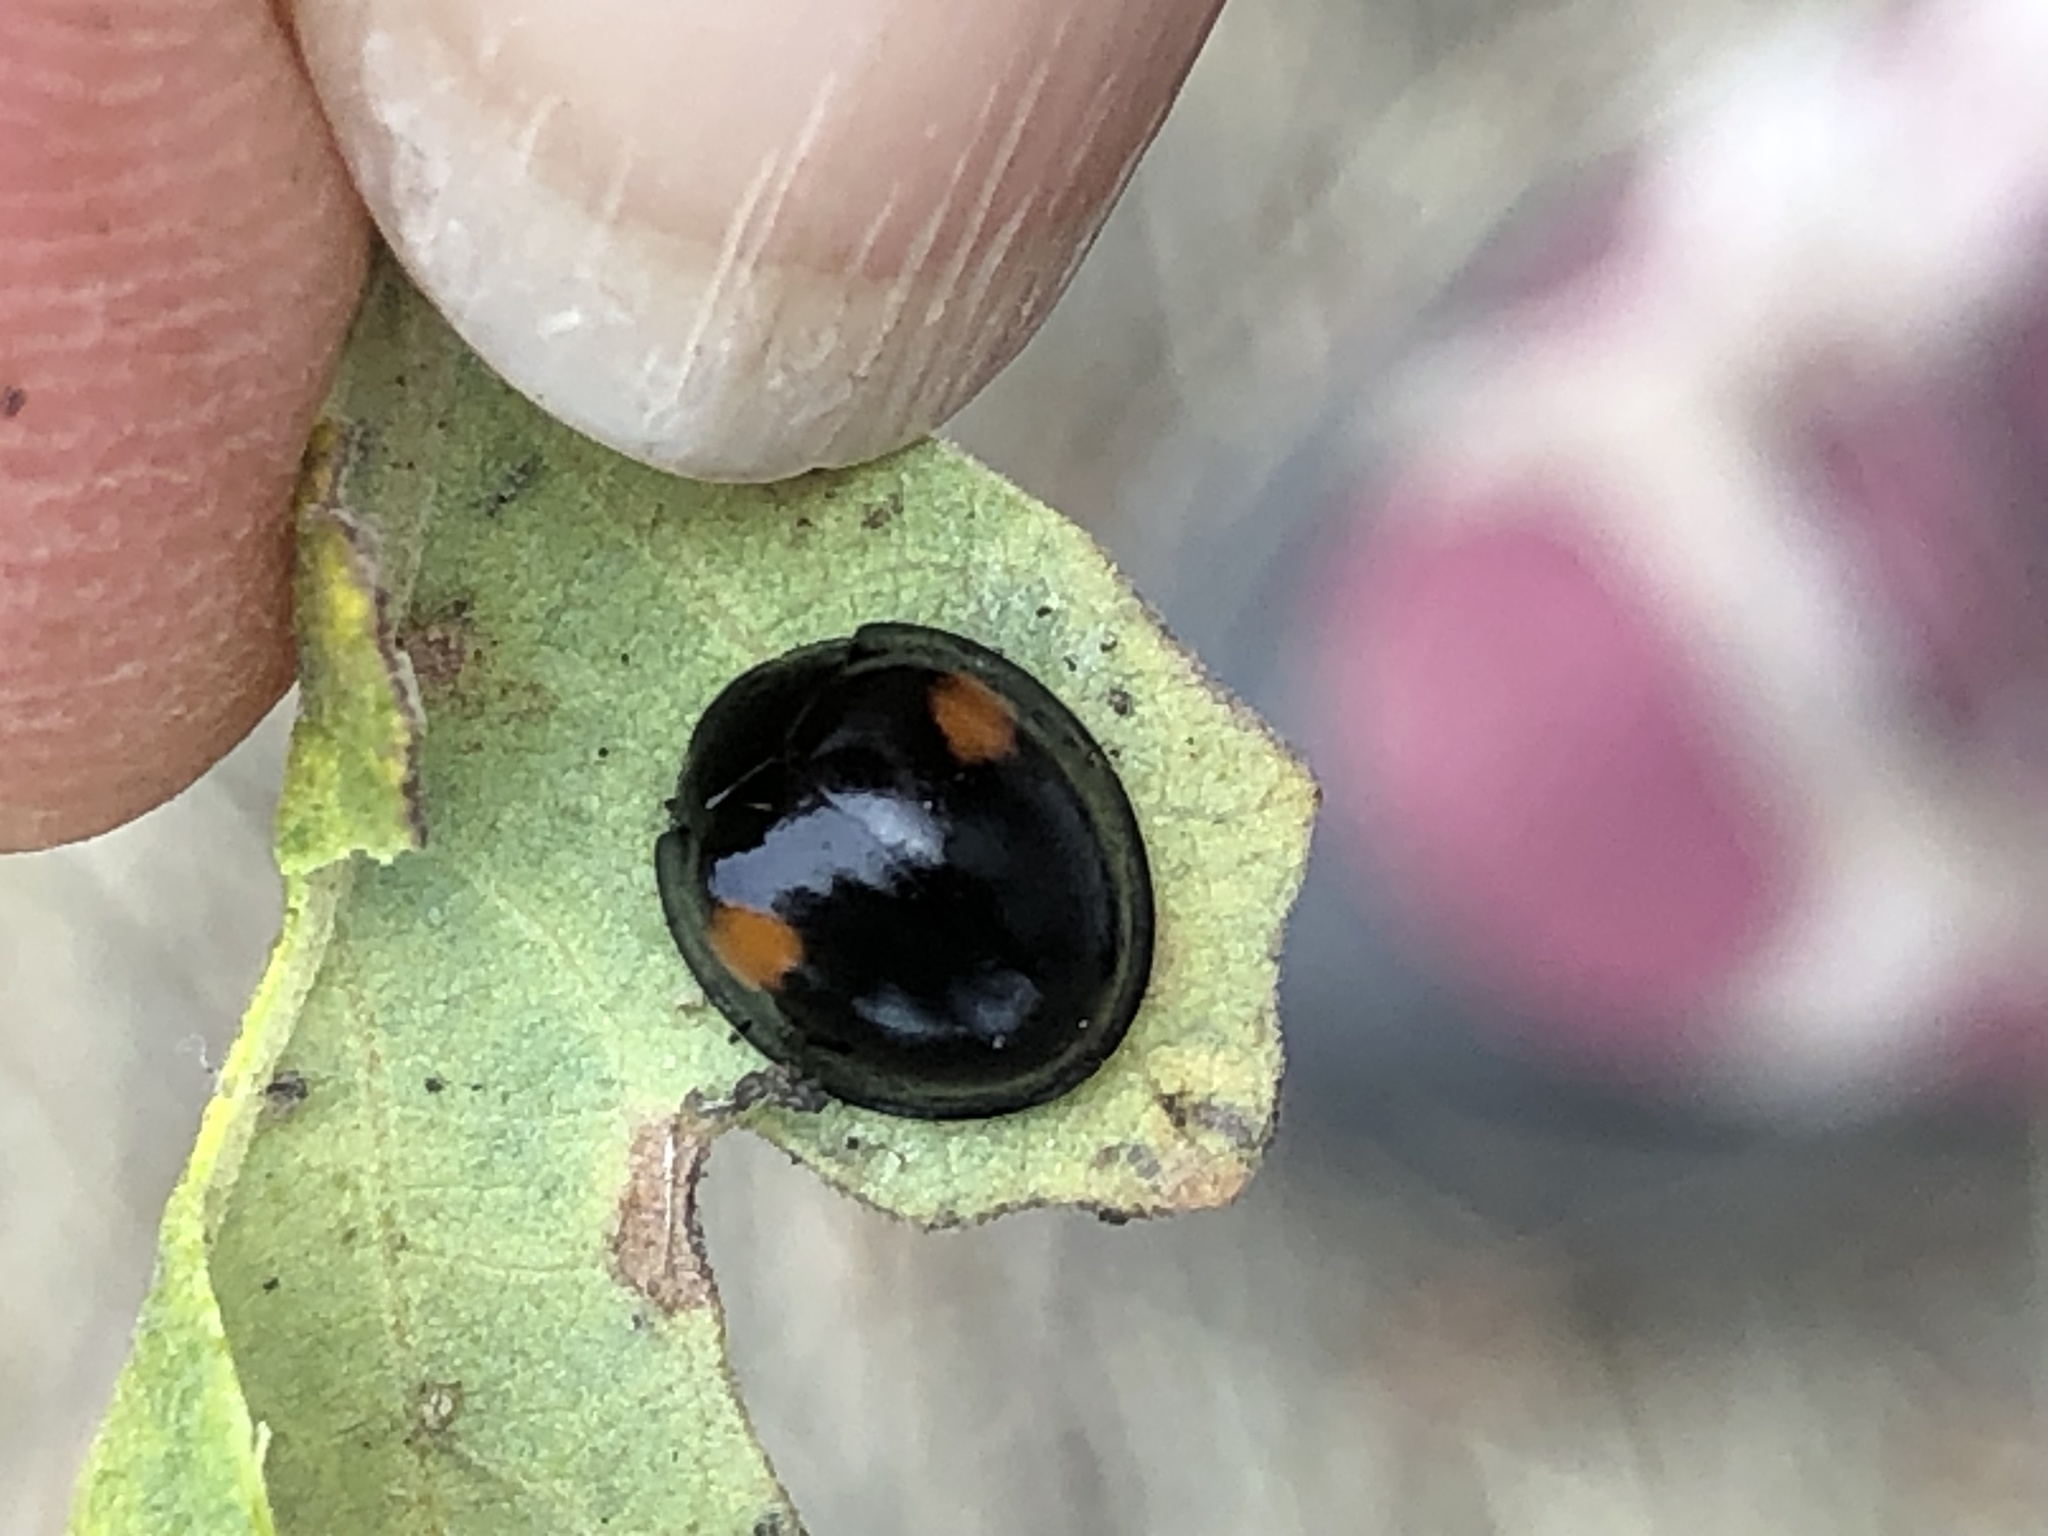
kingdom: Animalia
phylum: Arthropoda
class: Insecta
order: Coleoptera
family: Coccinellidae
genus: Axion
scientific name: Axion plagiatum
